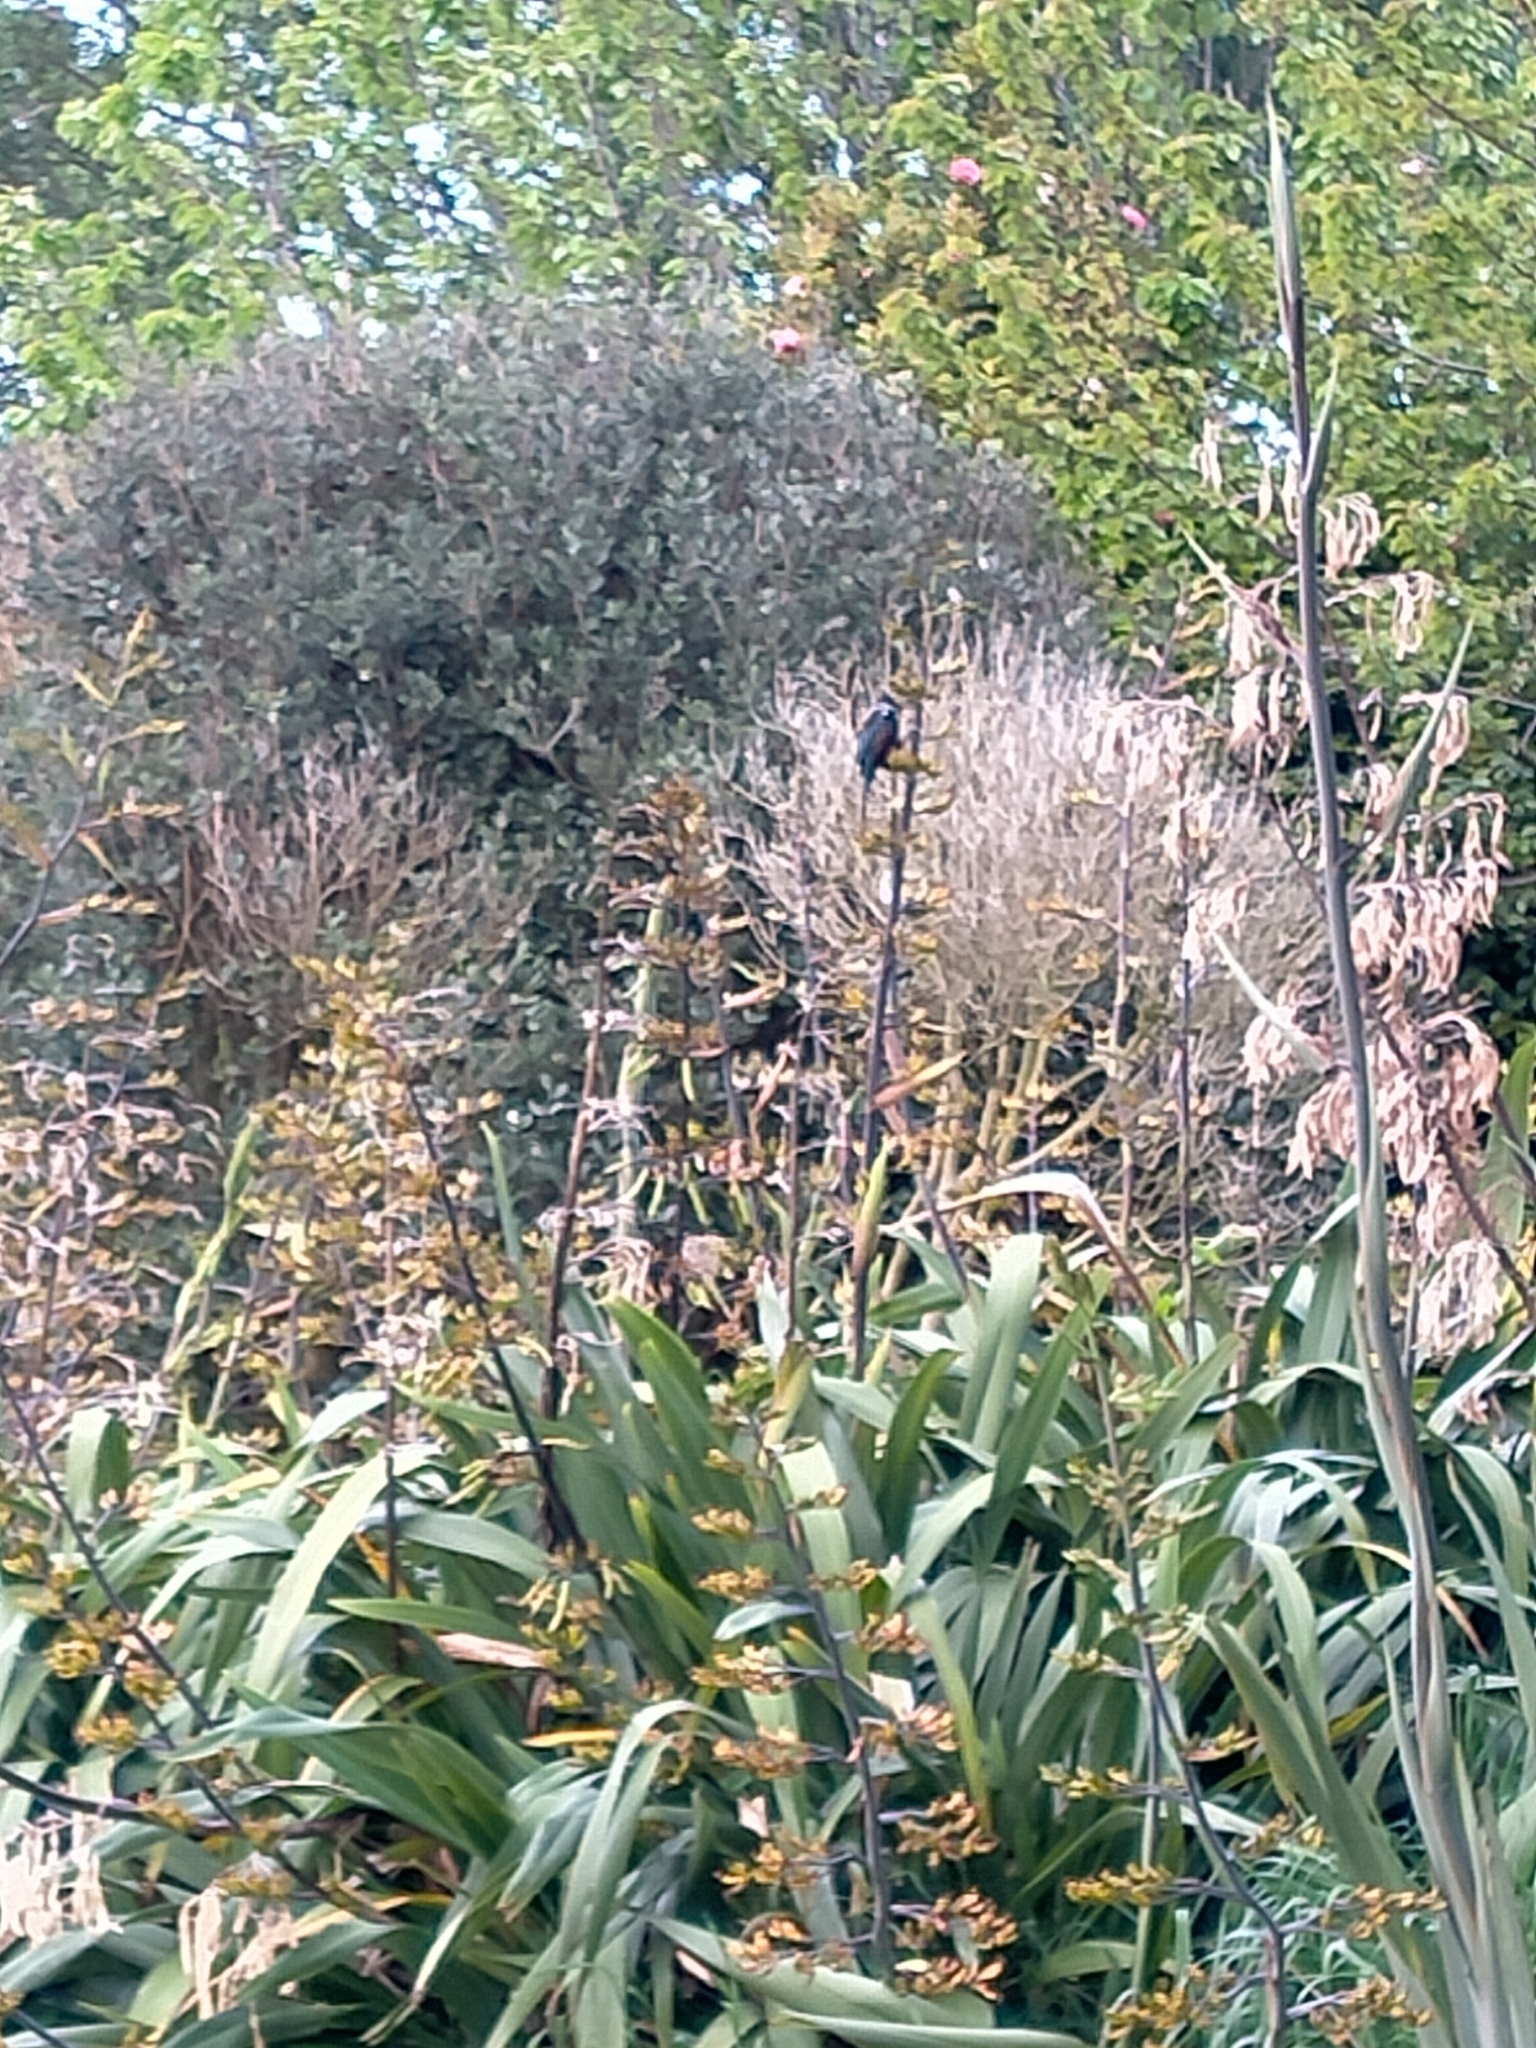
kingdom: Animalia
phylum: Chordata
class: Aves
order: Passeriformes
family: Meliphagidae
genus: Prosthemadera
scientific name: Prosthemadera novaeseelandiae
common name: Tui
